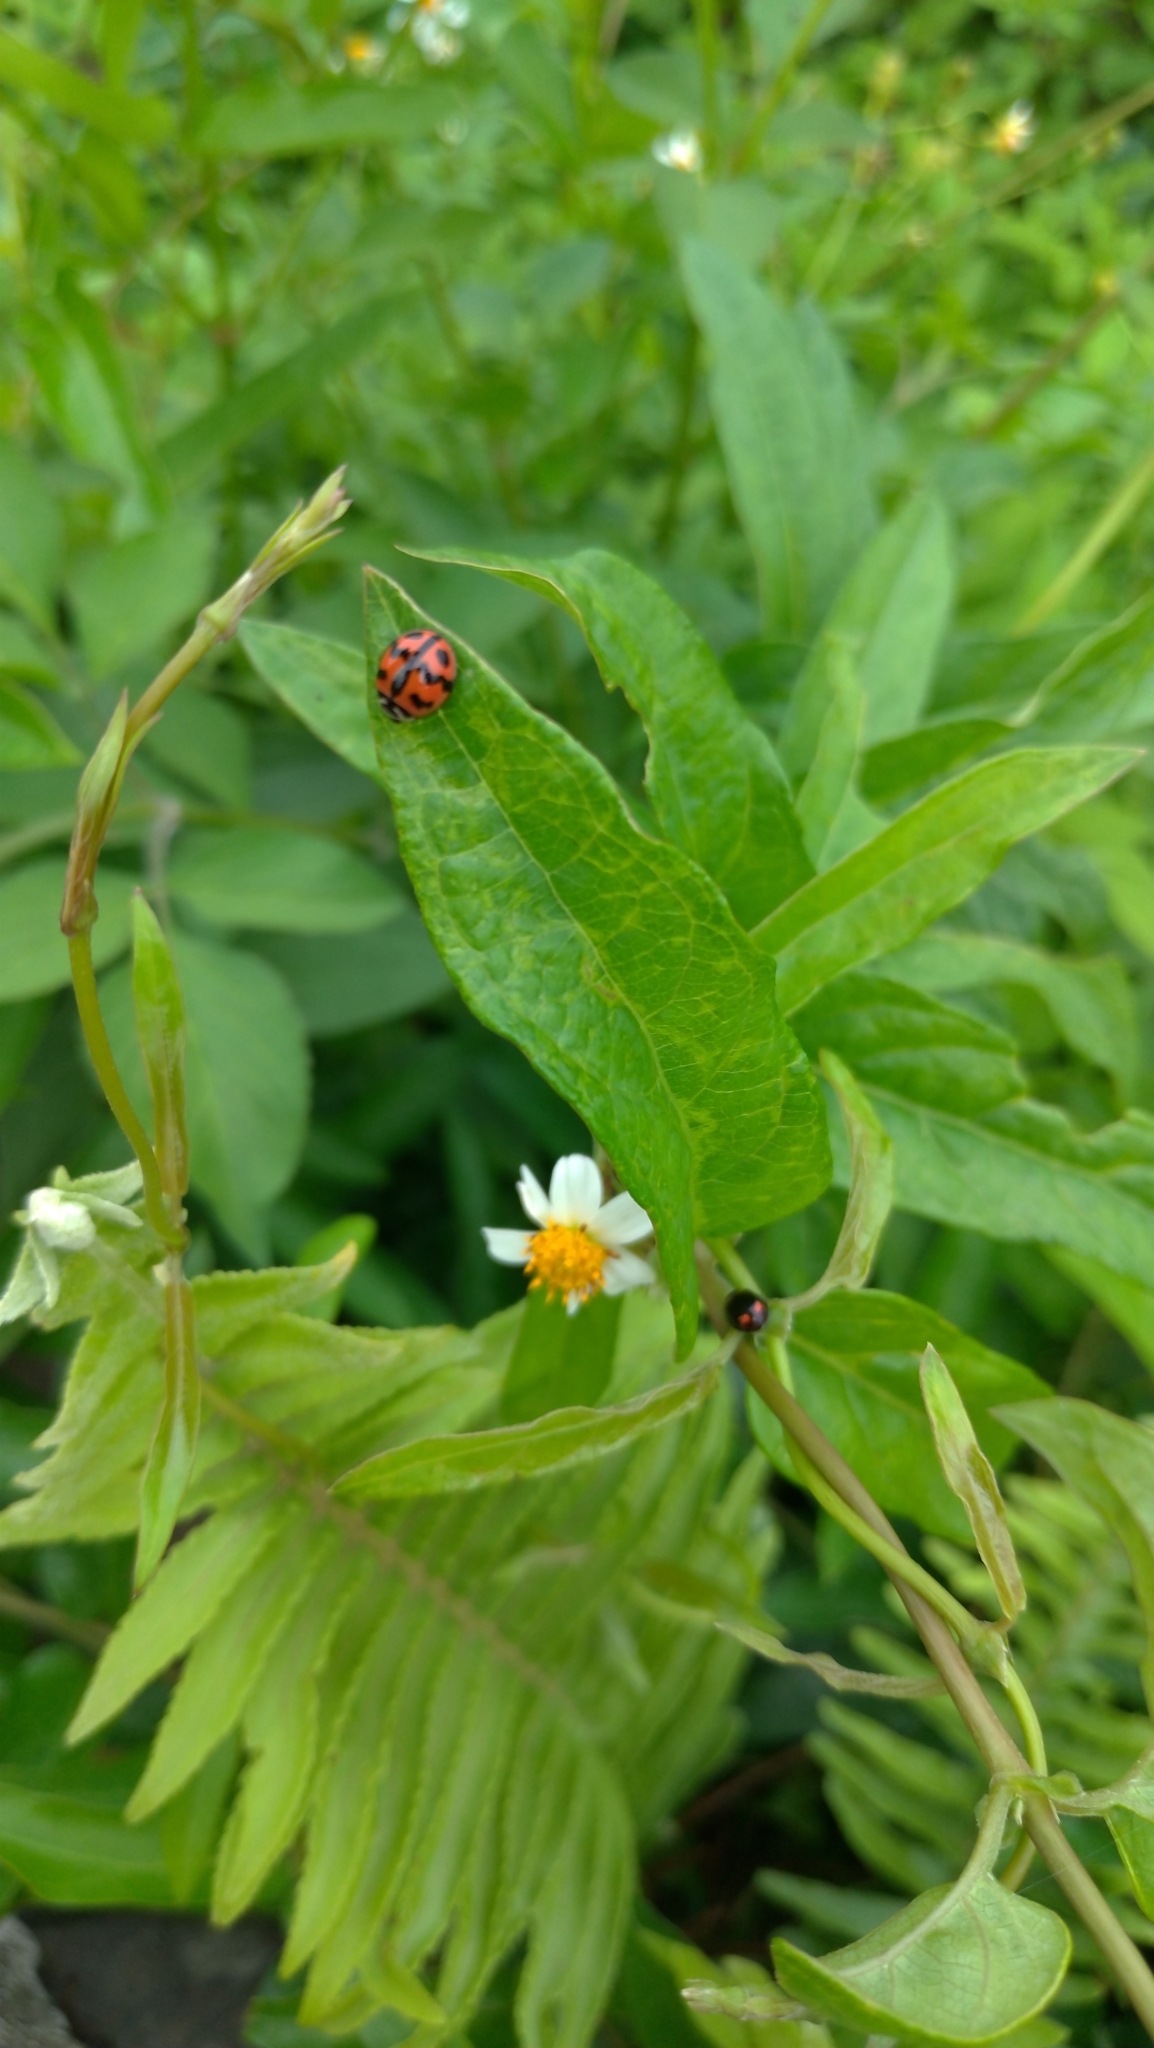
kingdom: Animalia
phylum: Arthropoda
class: Insecta
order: Coleoptera
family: Coccinellidae
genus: Cheilomenes
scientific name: Cheilomenes sexmaculata
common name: Ladybird beetle
